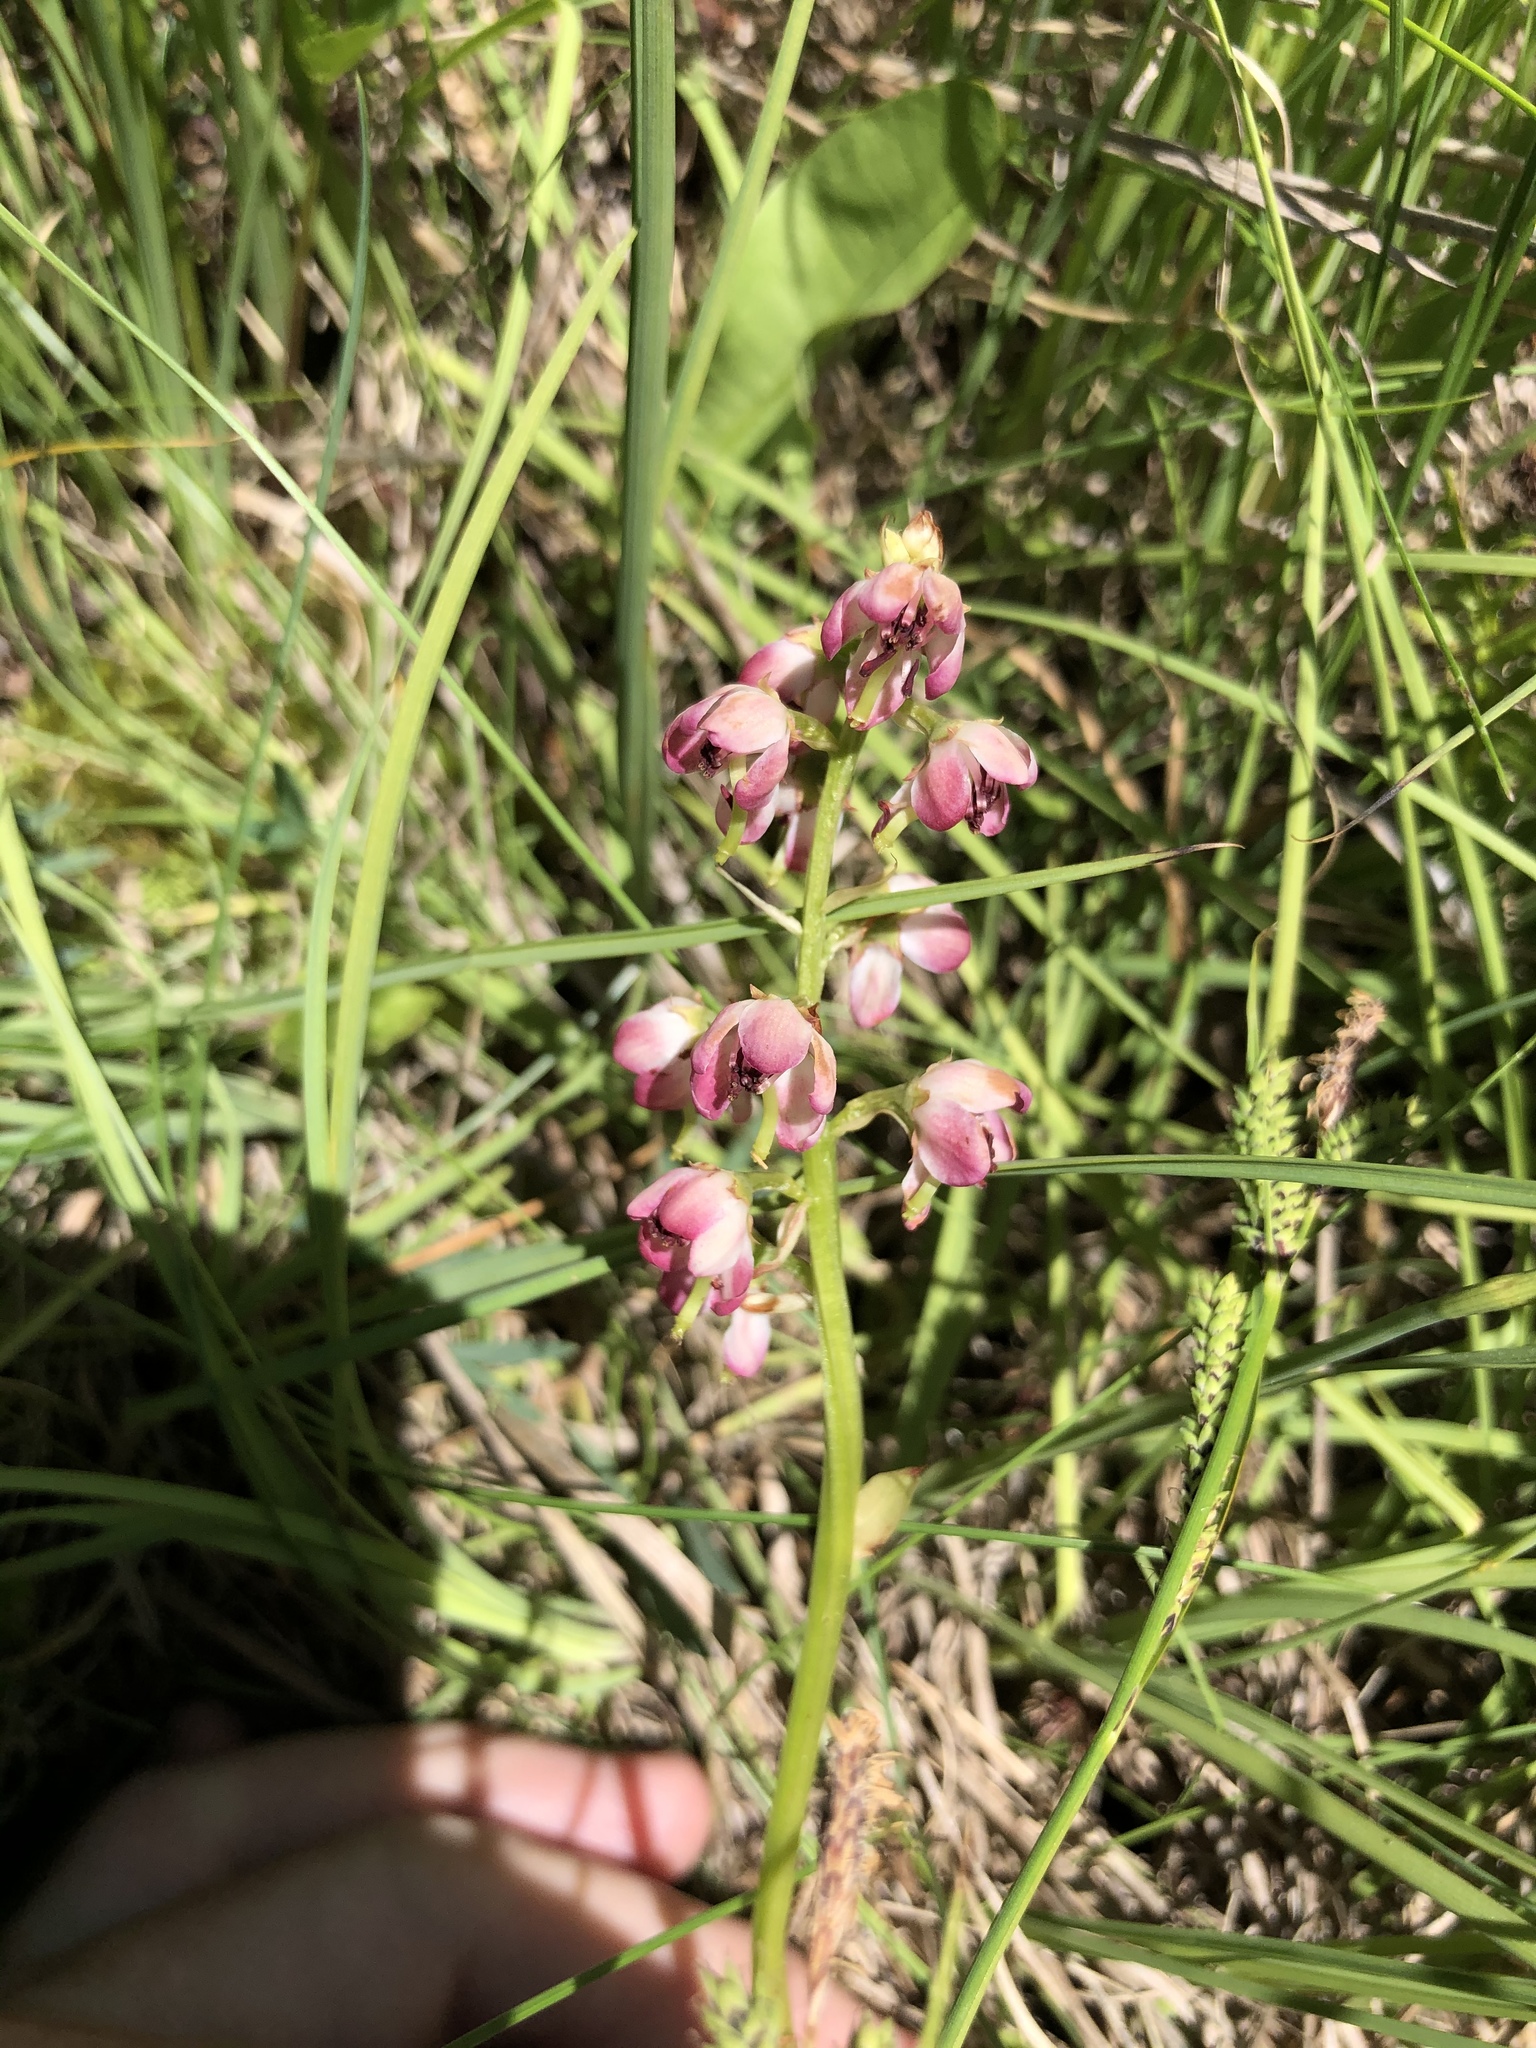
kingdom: Plantae
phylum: Tracheophyta
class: Magnoliopsida
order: Ericales
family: Ericaceae
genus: Pyrola
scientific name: Pyrola asarifolia
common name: Bog wintergreen
